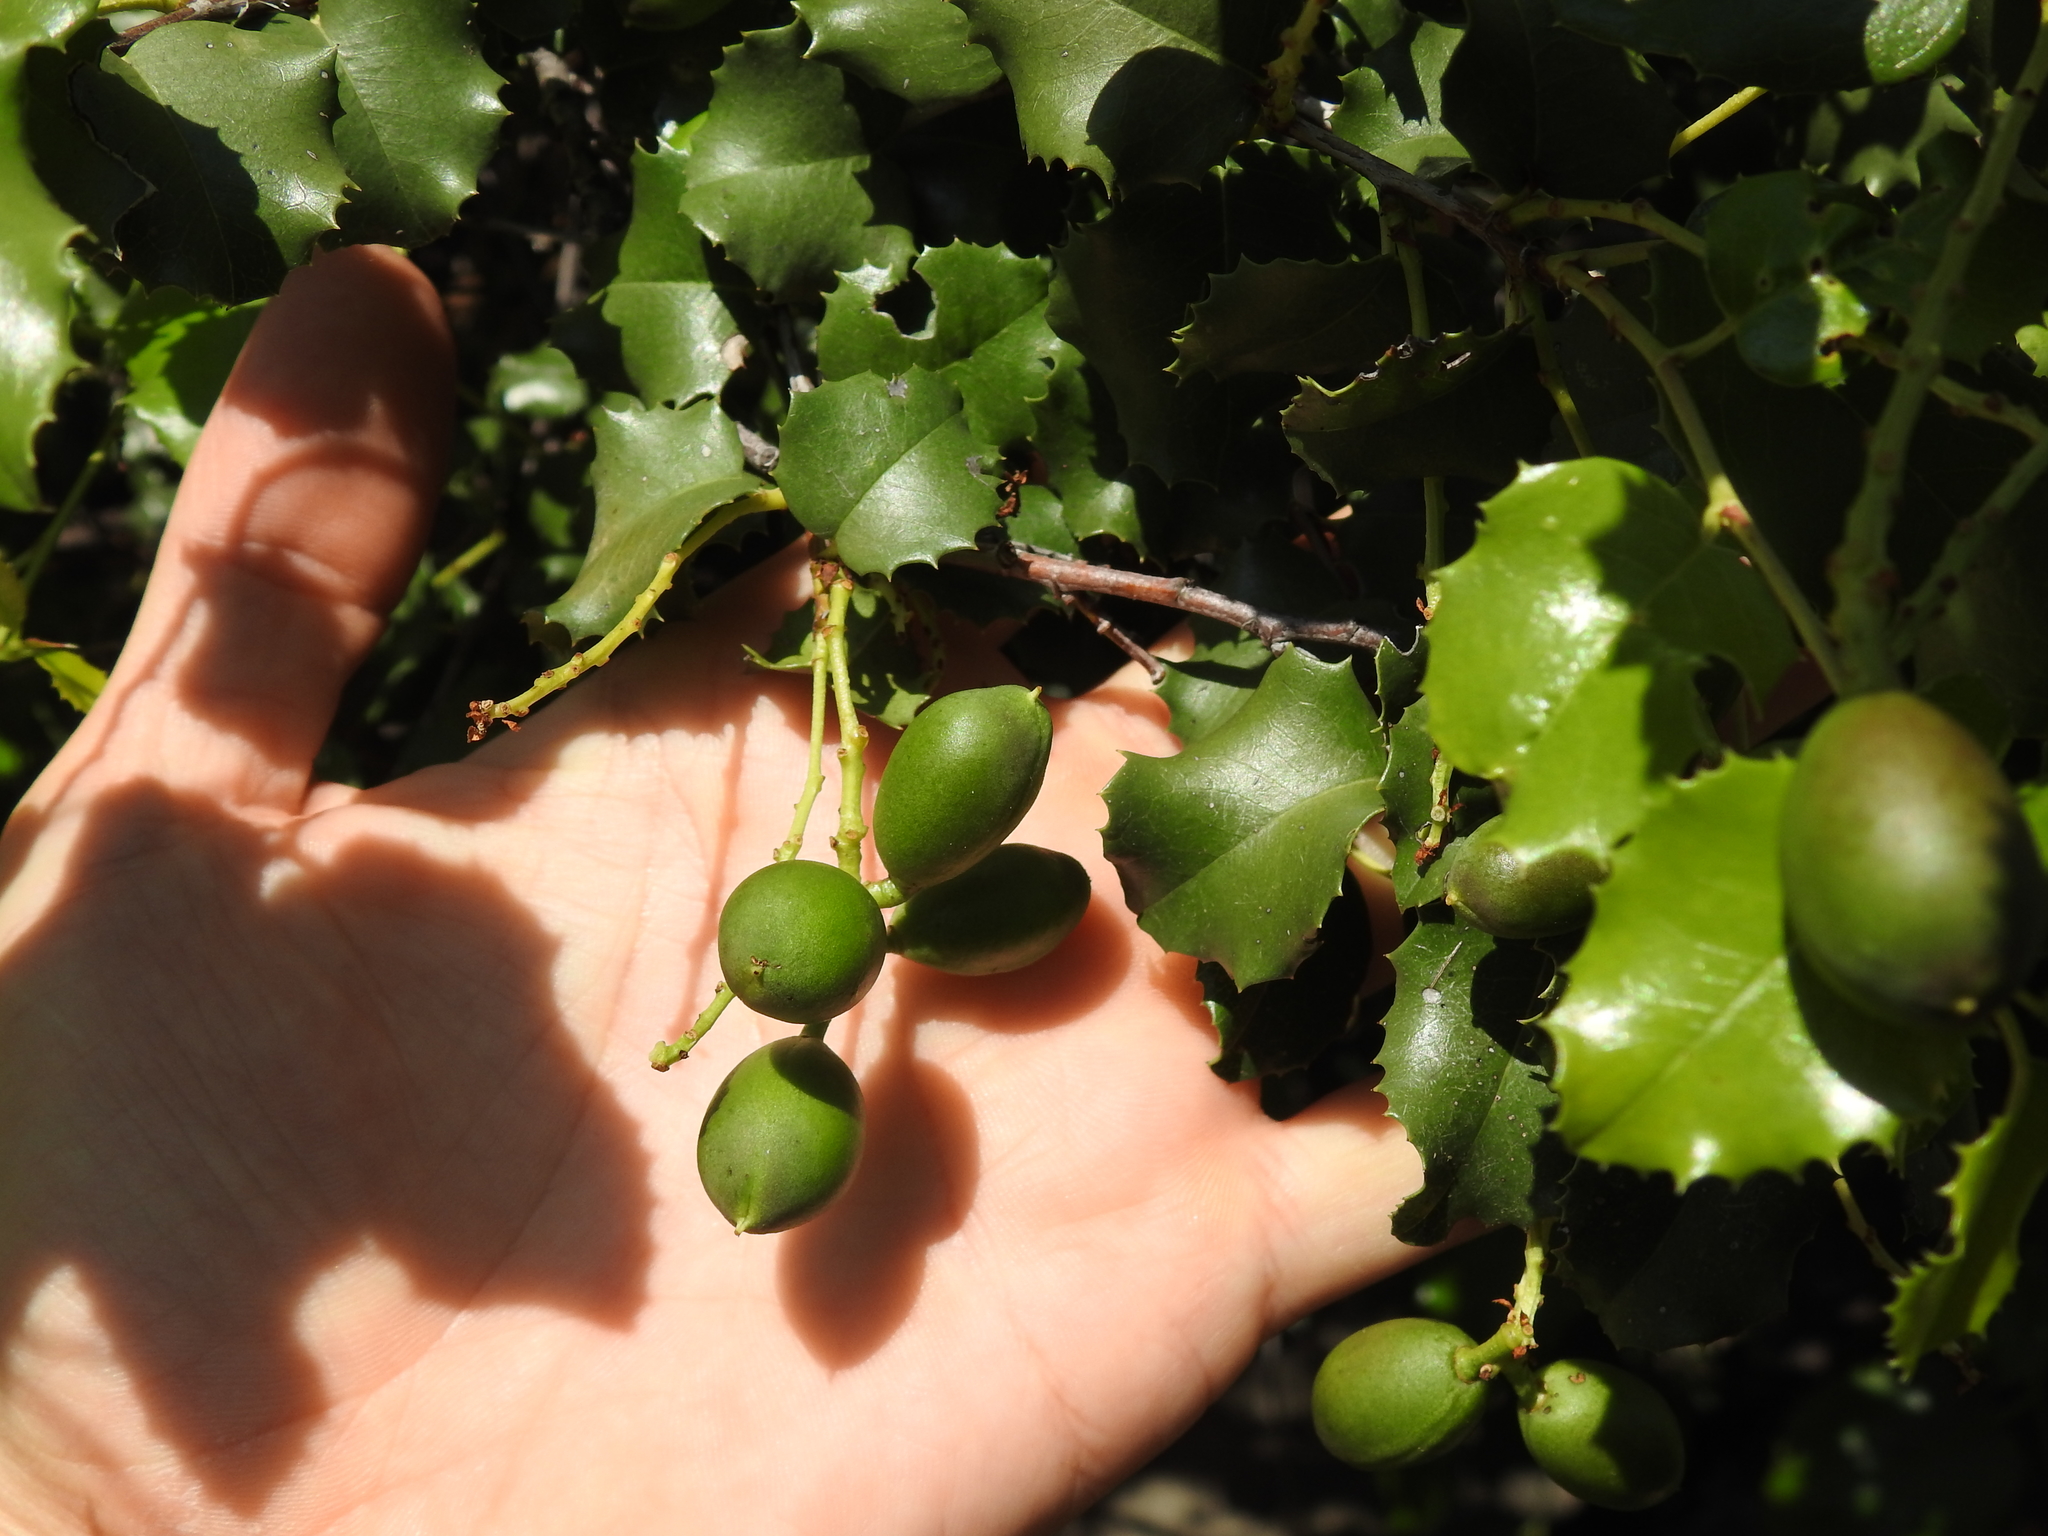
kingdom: Plantae
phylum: Tracheophyta
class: Magnoliopsida
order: Rosales
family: Rosaceae
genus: Prunus
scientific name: Prunus ilicifolia
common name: Hollyleaf cherry
